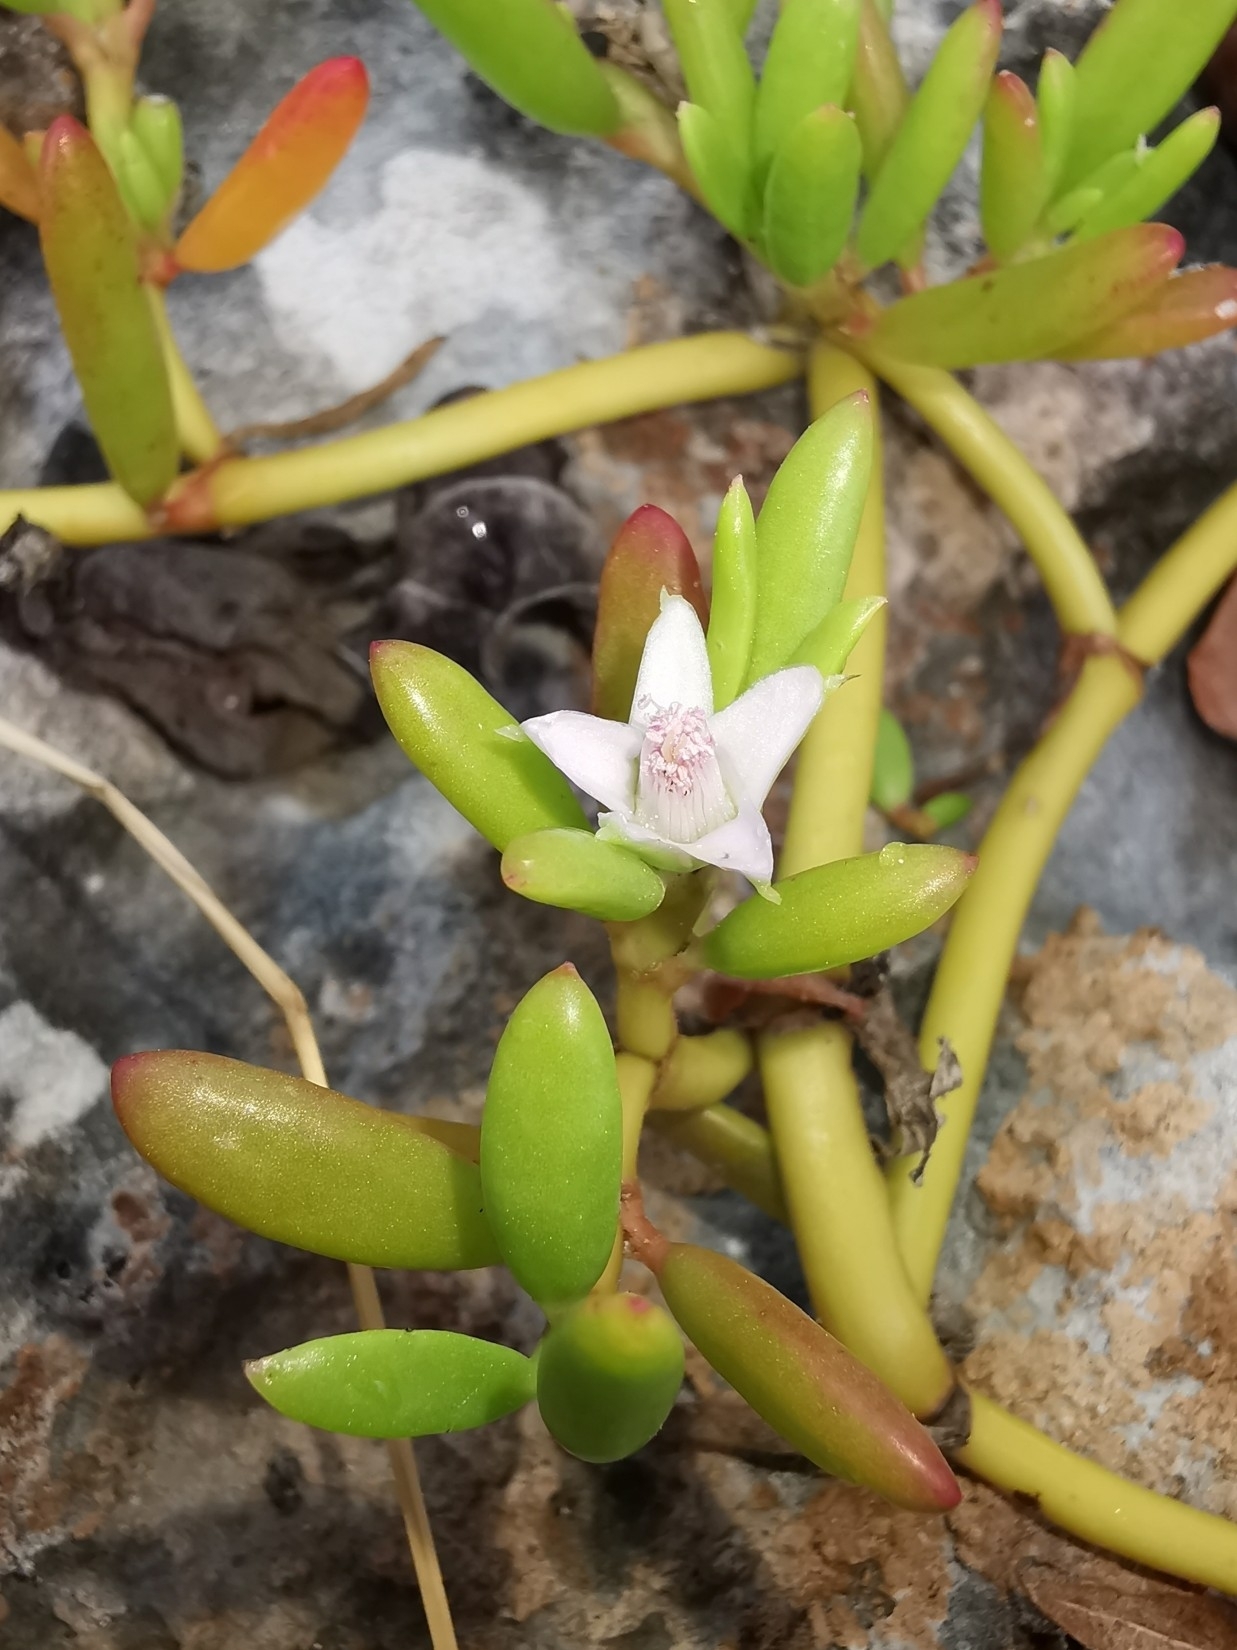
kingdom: Plantae
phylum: Tracheophyta
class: Magnoliopsida
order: Caryophyllales
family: Aizoaceae
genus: Sesuvium
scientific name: Sesuvium portulacastrum
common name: Sea-purslane
